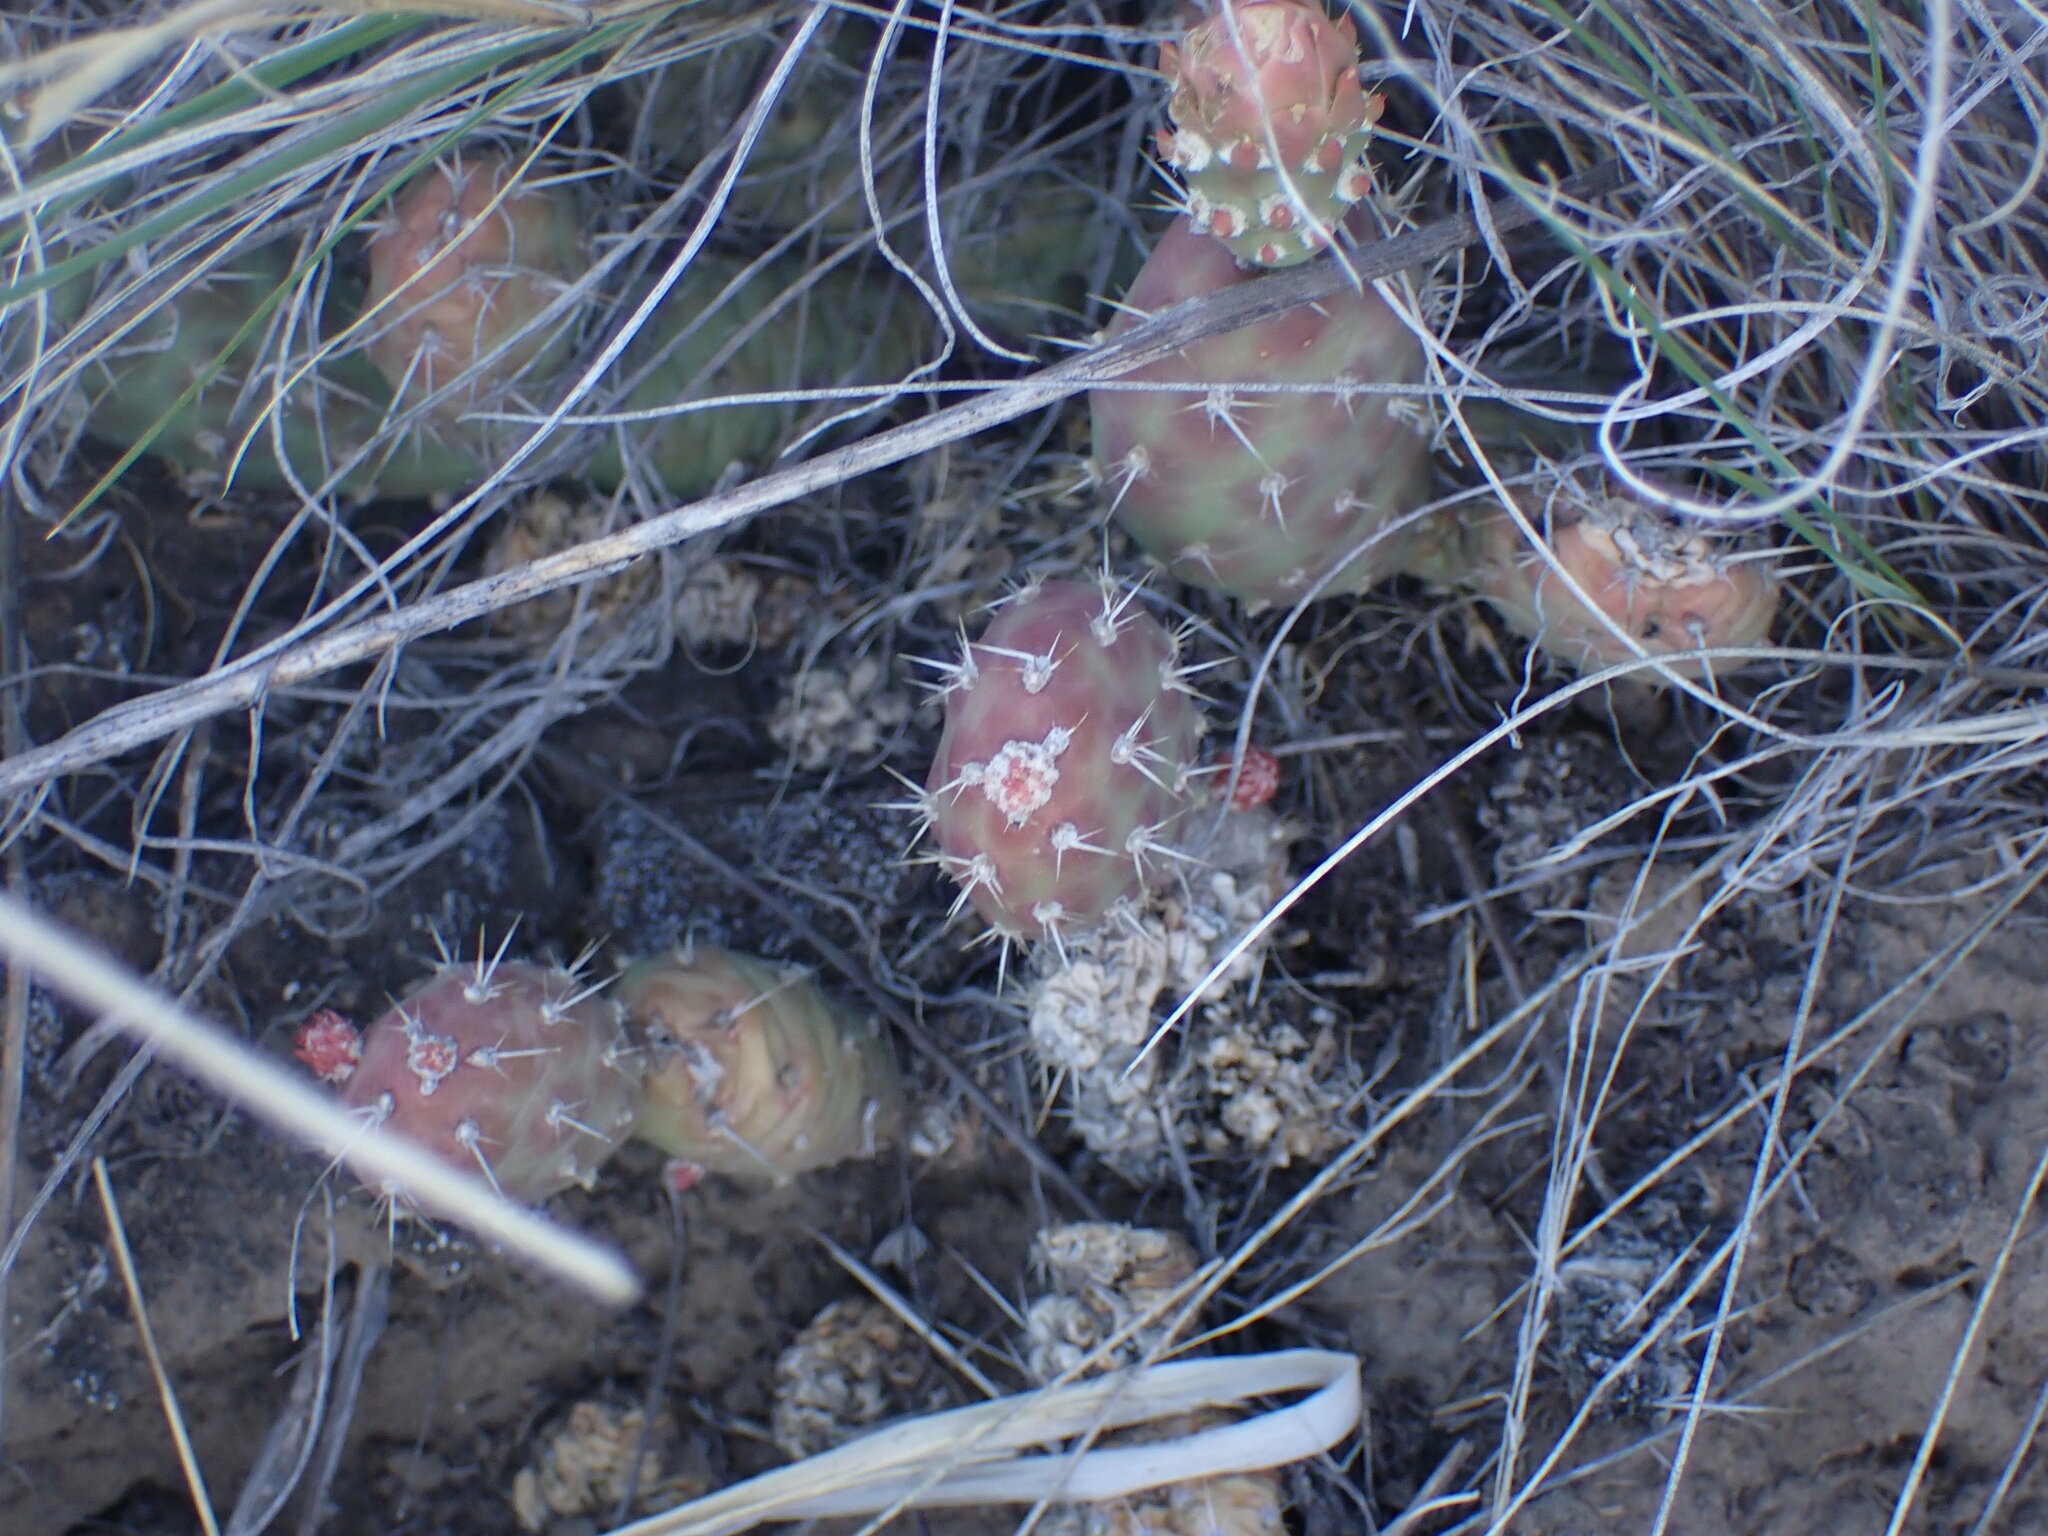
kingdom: Plantae
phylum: Tracheophyta
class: Magnoliopsida
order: Caryophyllales
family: Cactaceae
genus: Opuntia
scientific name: Opuntia fragilis
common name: Brittle cactus
